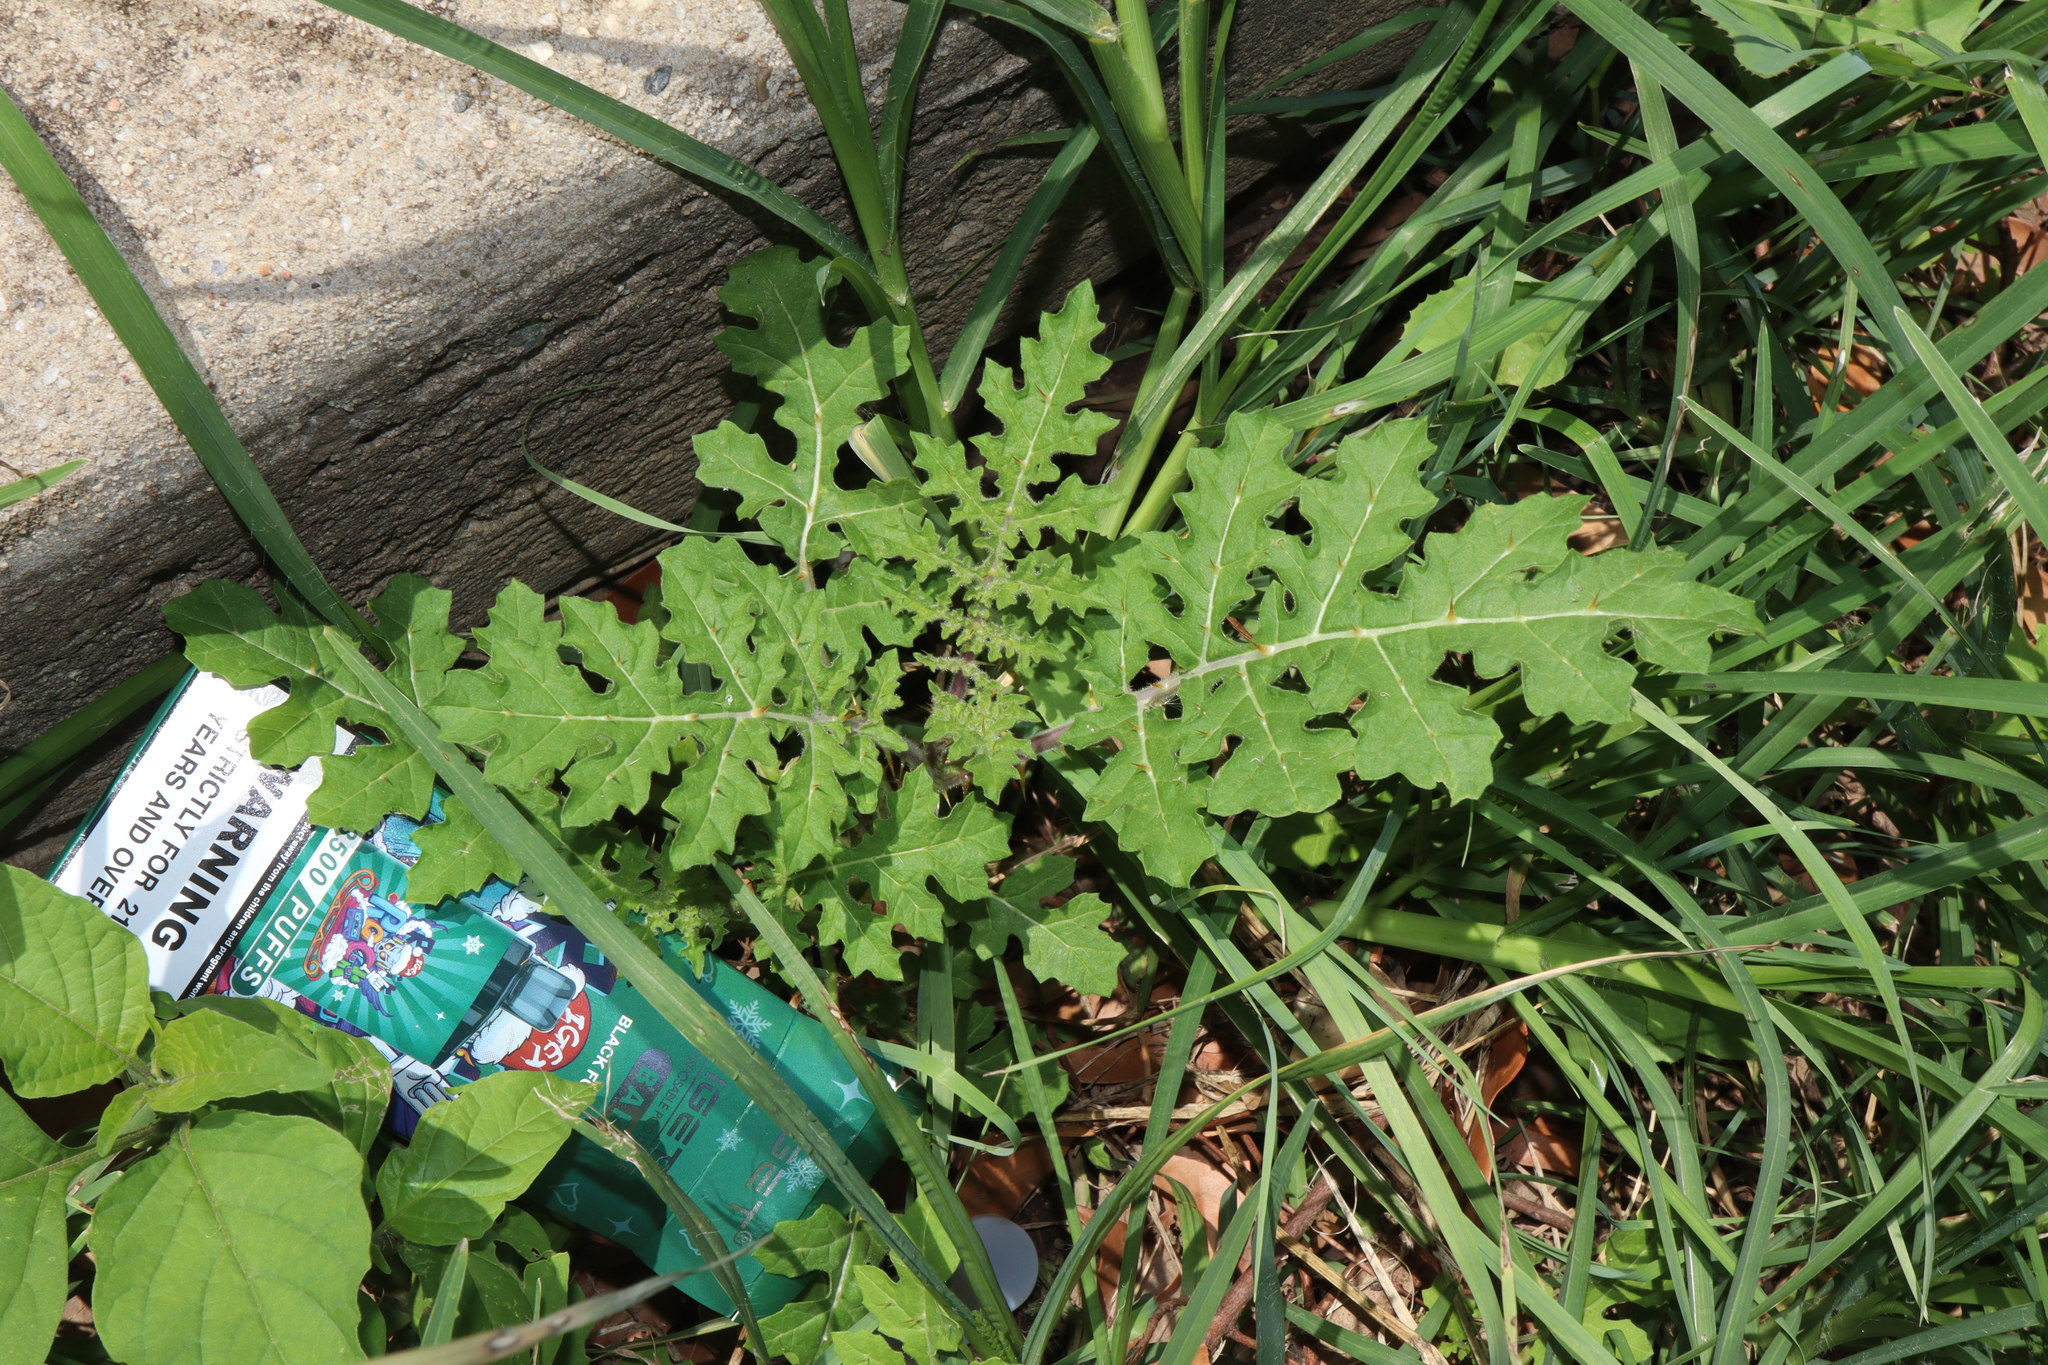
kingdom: Plantae
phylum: Tracheophyta
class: Magnoliopsida
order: Solanales
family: Solanaceae
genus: Solanum
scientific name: Solanum sisymbriifolium
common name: Red buffalo-bur
